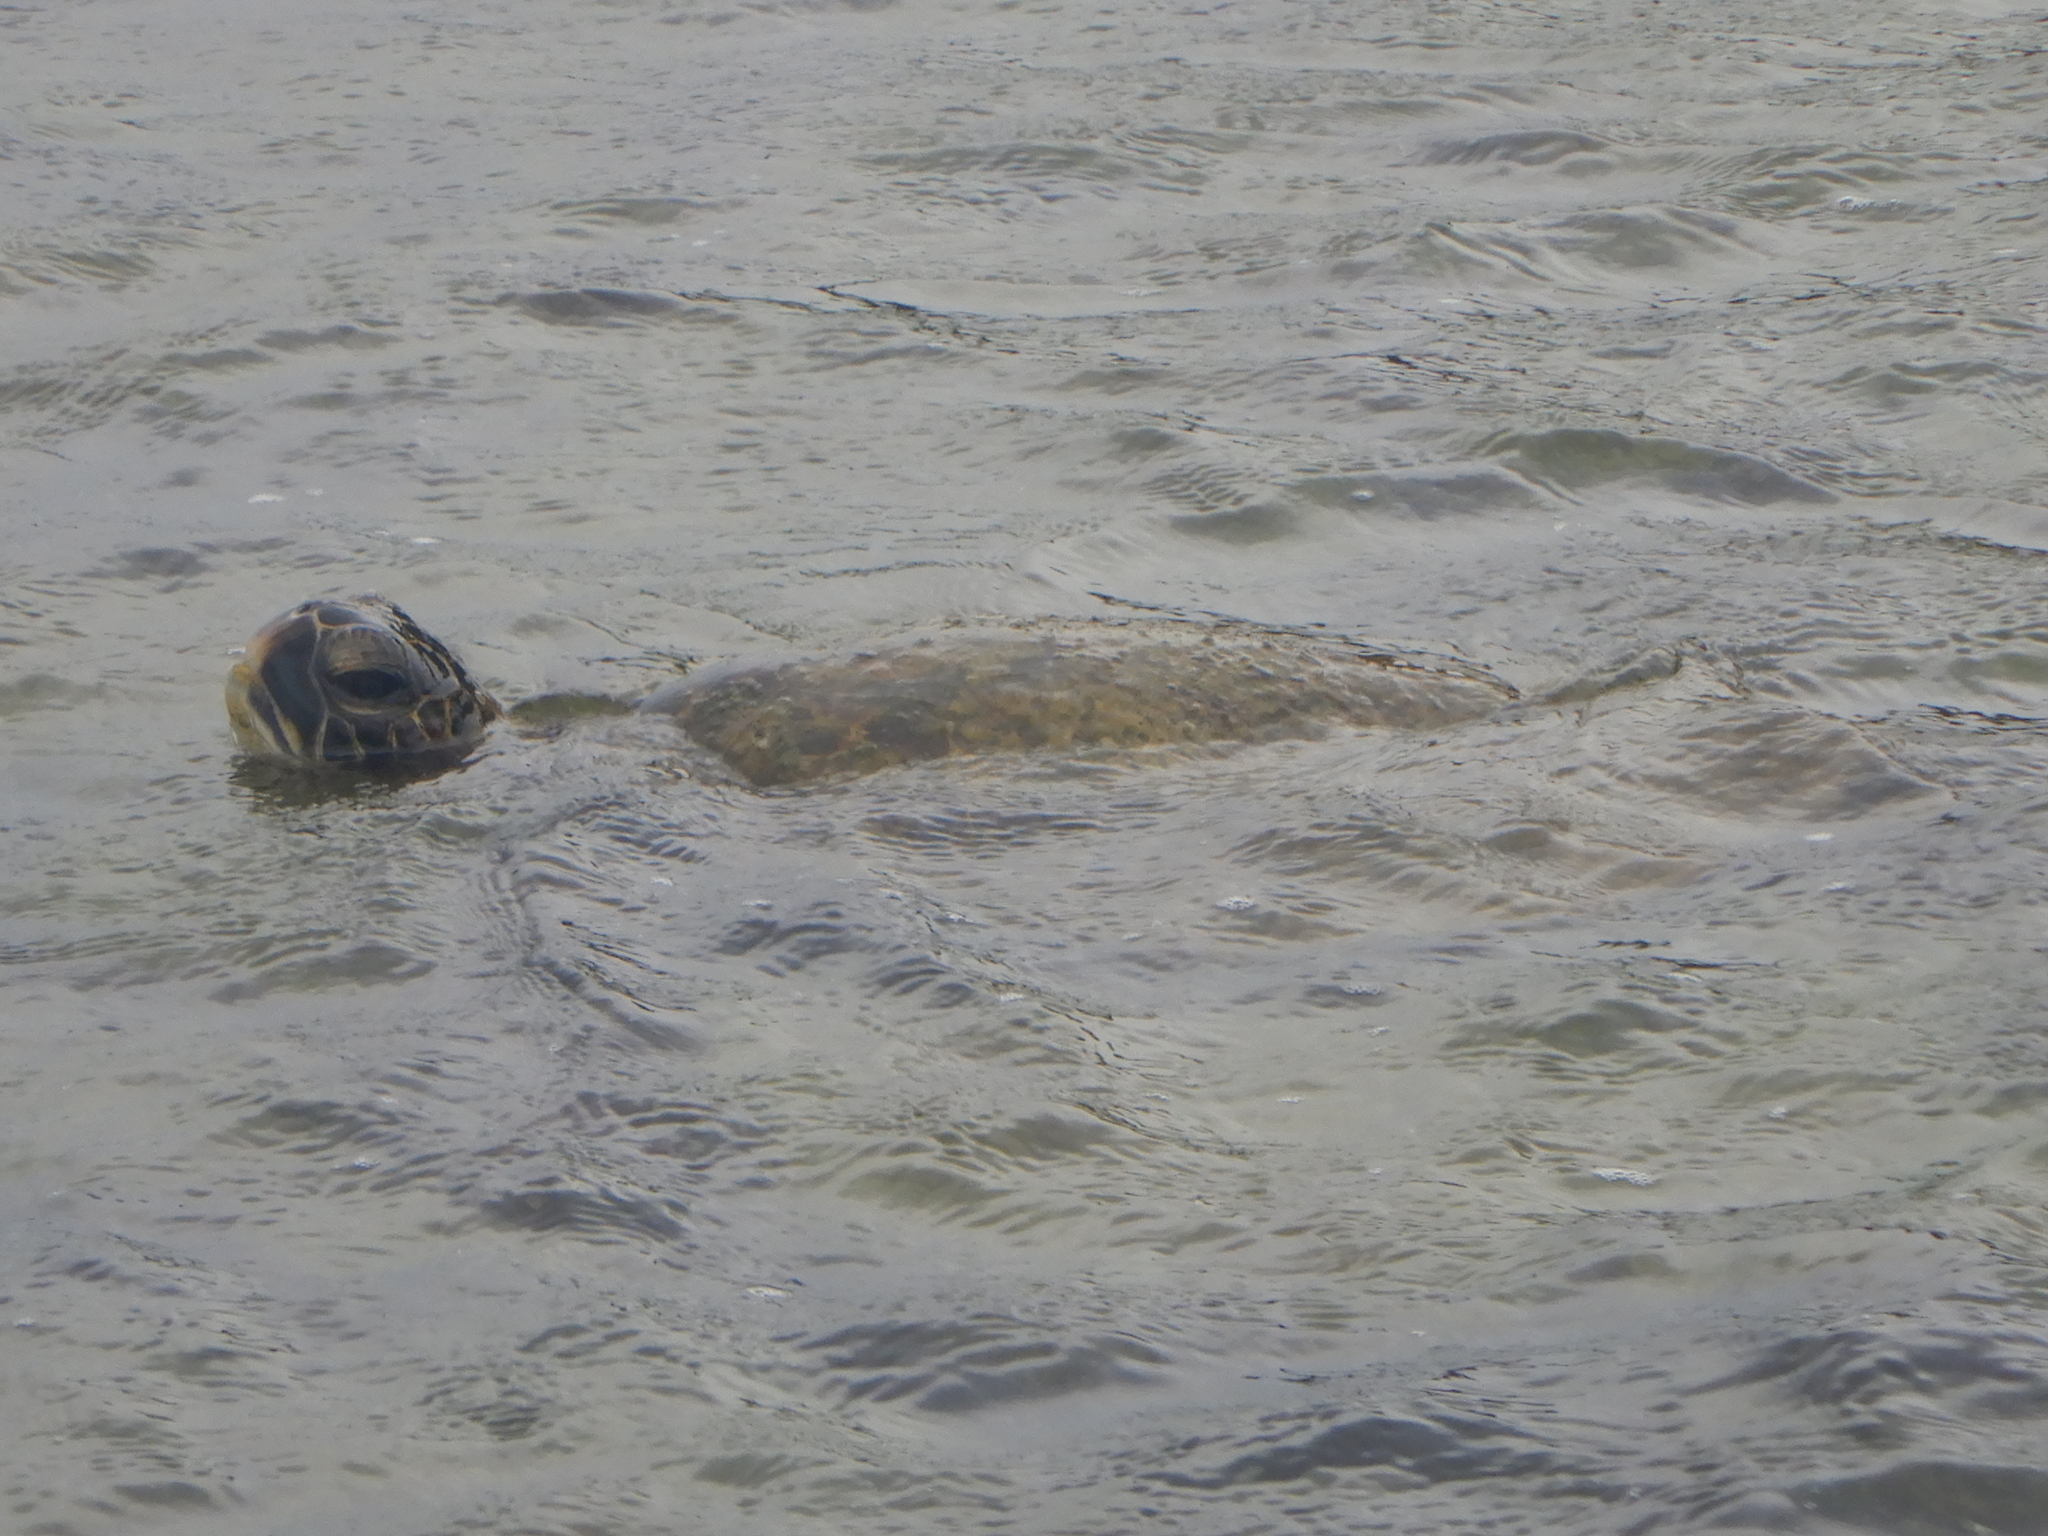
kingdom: Animalia
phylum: Chordata
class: Testudines
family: Cheloniidae
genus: Chelonia
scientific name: Chelonia mydas
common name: Green turtle
